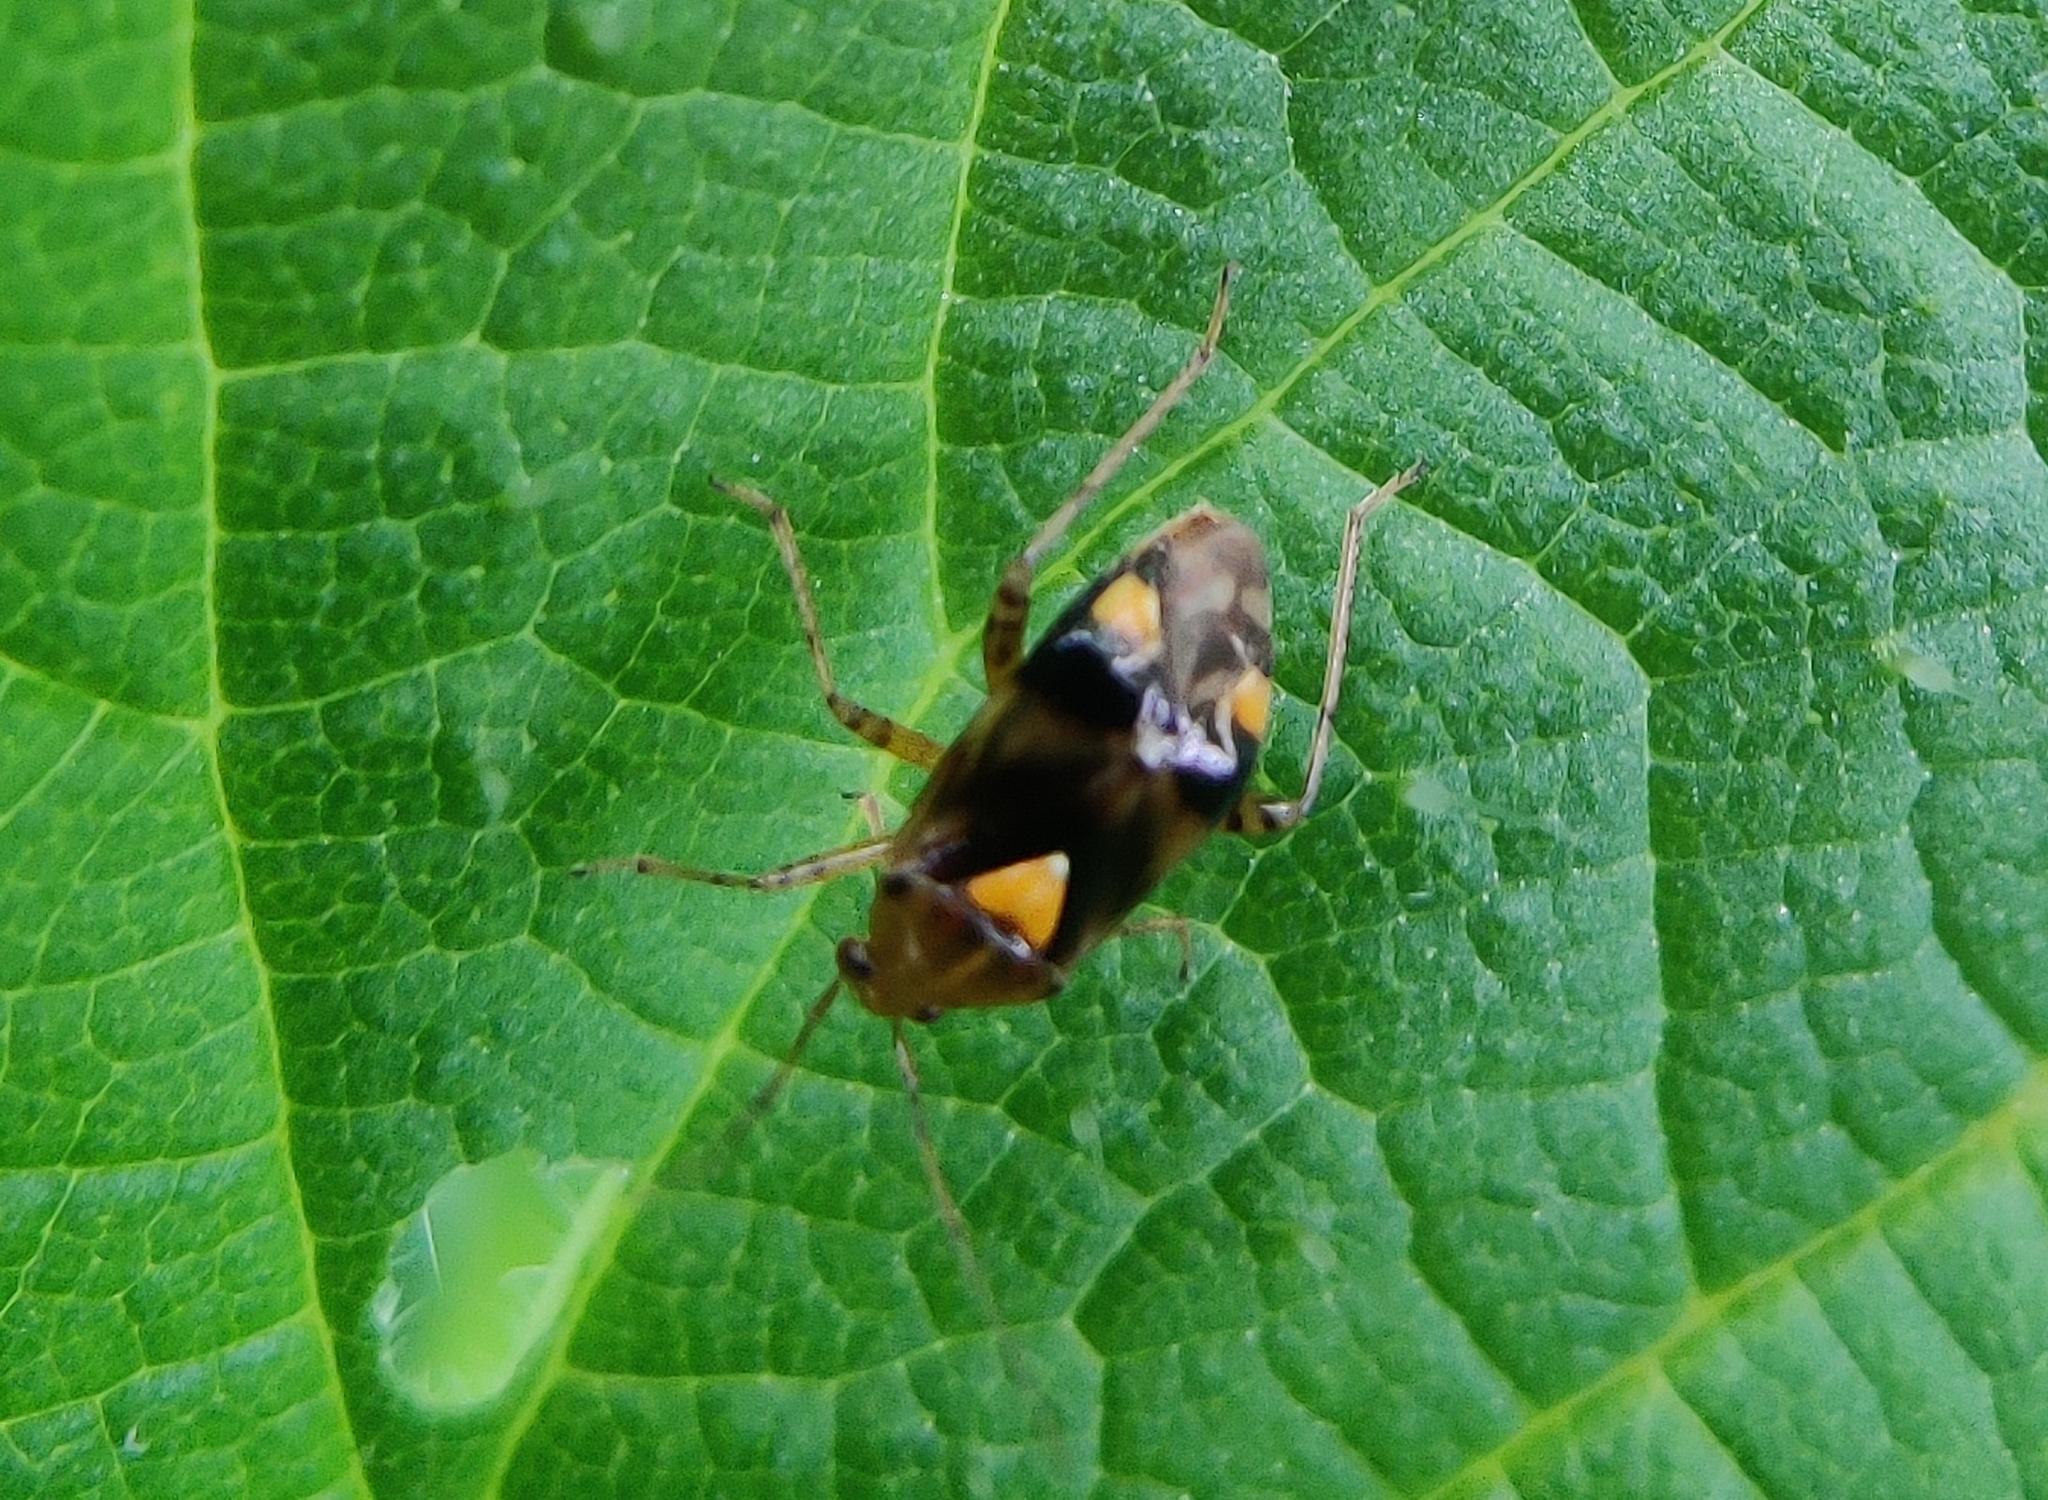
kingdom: Animalia
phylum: Arthropoda
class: Insecta
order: Hemiptera
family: Miridae
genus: Liocoris
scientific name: Liocoris tripustulatus
